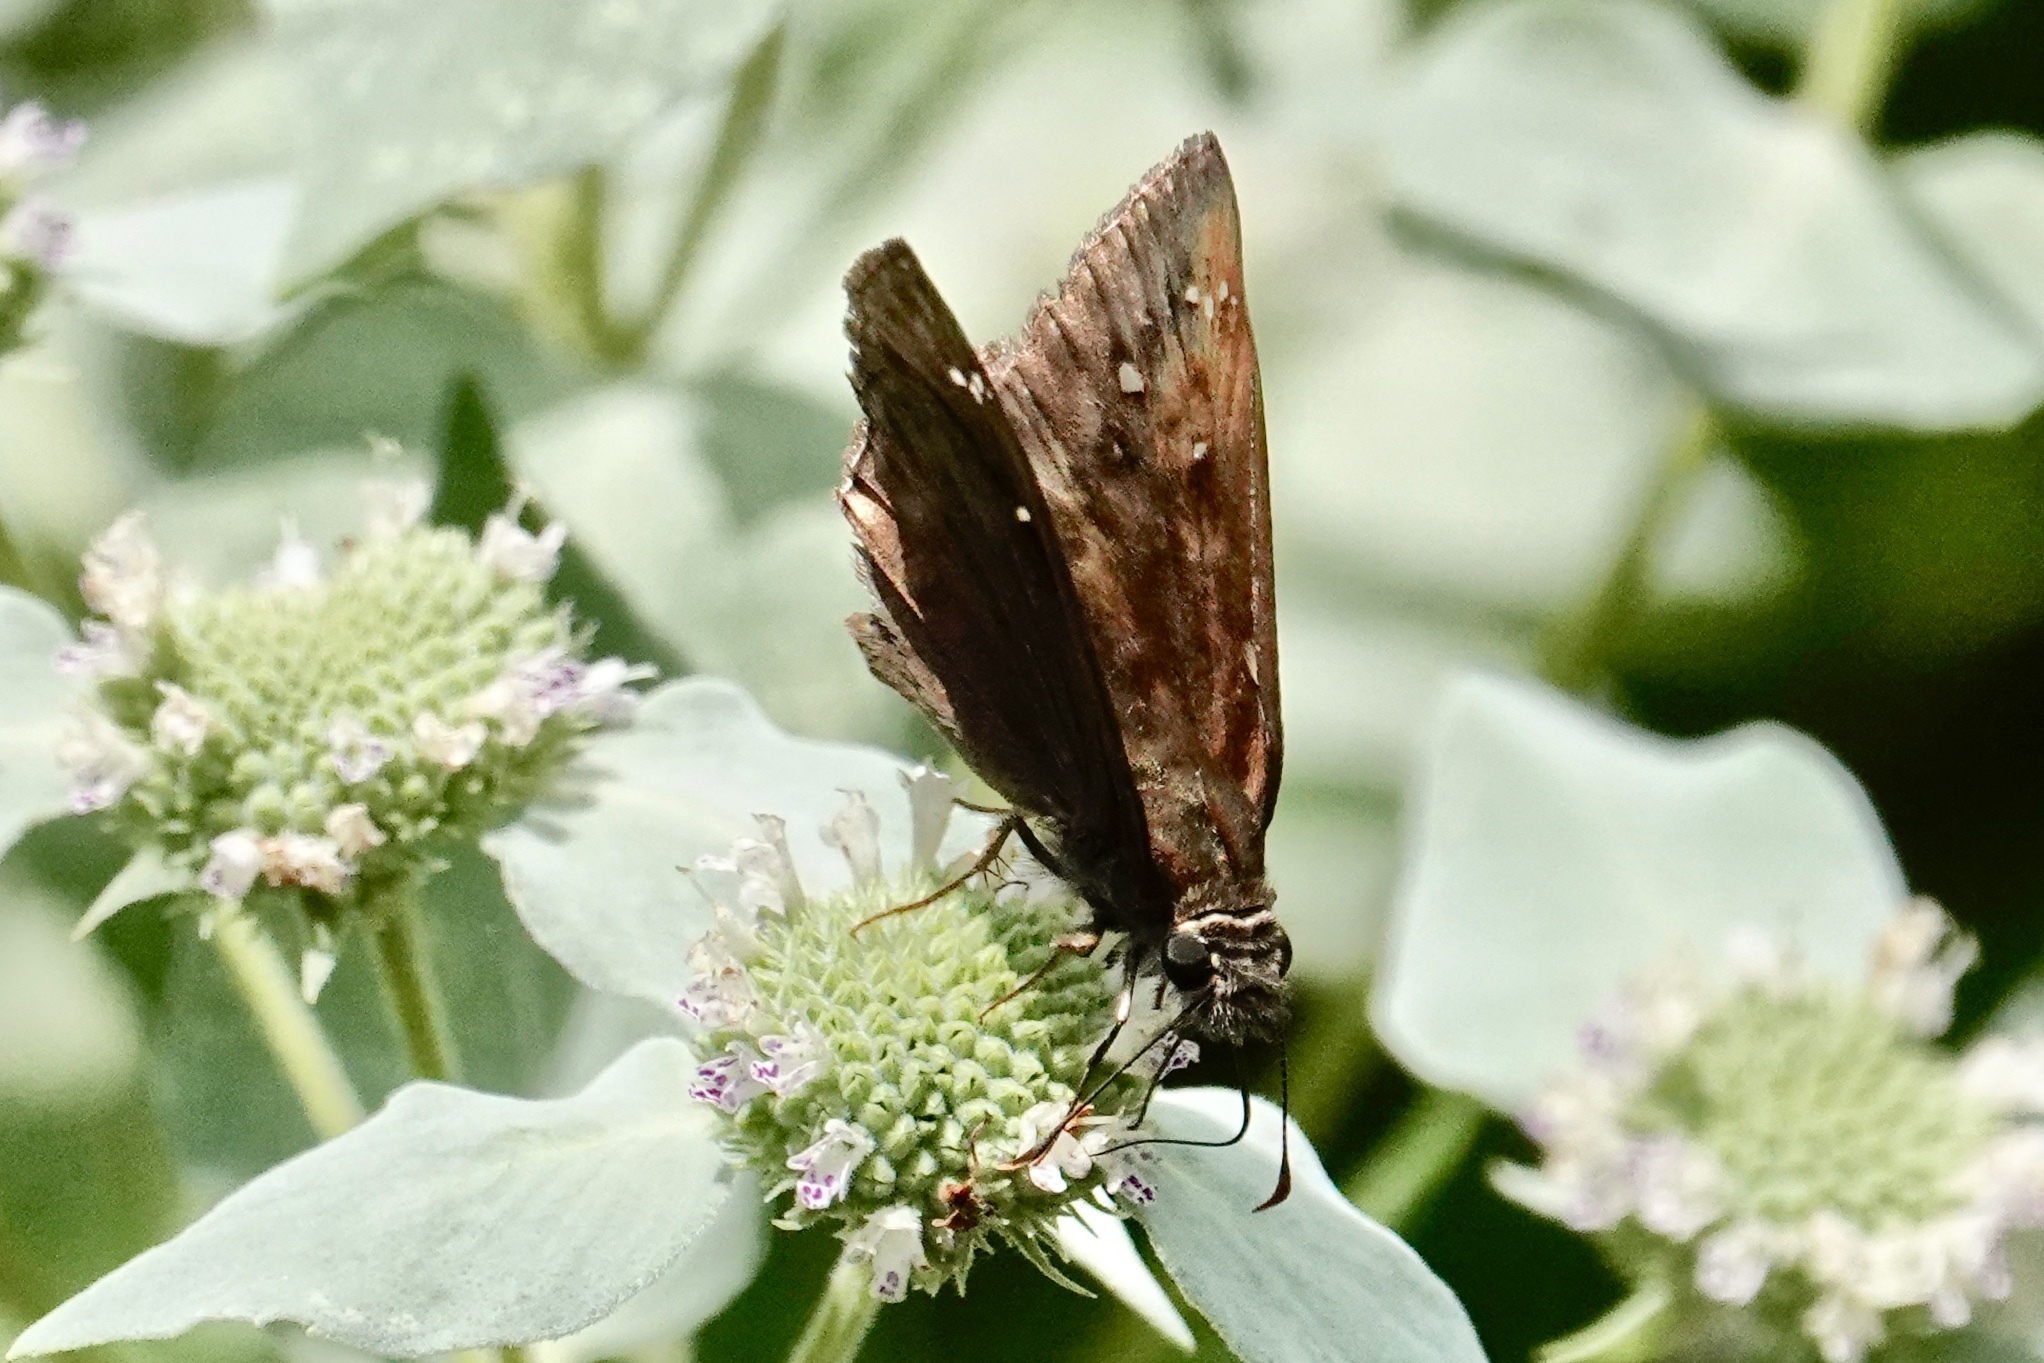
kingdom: Animalia
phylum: Arthropoda
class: Insecta
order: Lepidoptera
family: Hesperiidae
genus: Erynnis
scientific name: Erynnis horatius
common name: Horace's duskywing
